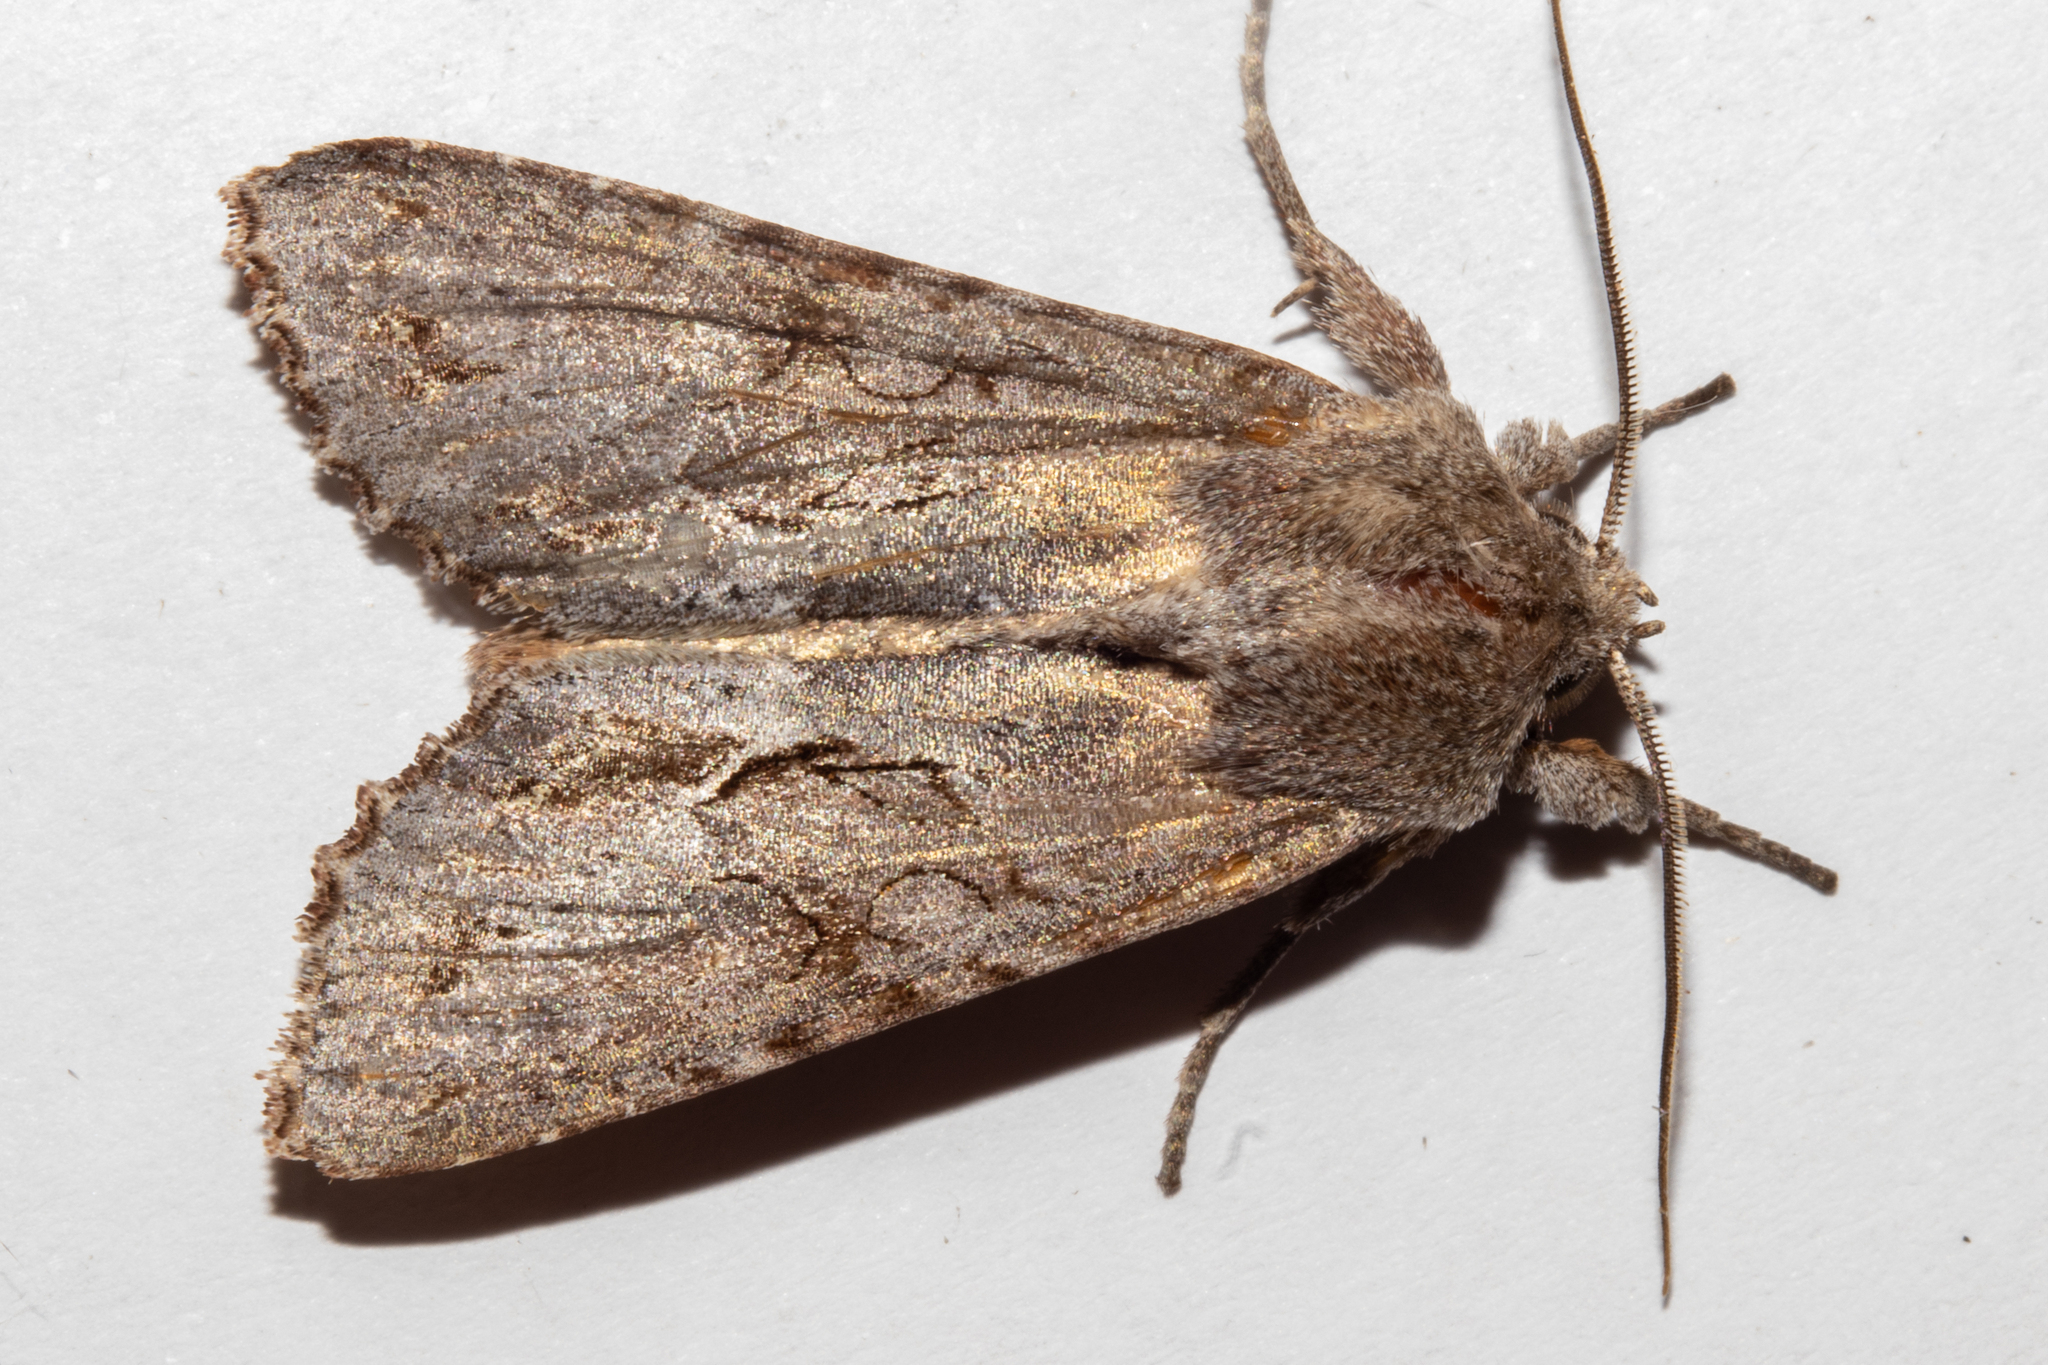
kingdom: Animalia
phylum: Arthropoda
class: Insecta
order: Lepidoptera
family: Noctuidae
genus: Ichneutica
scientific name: Ichneutica
